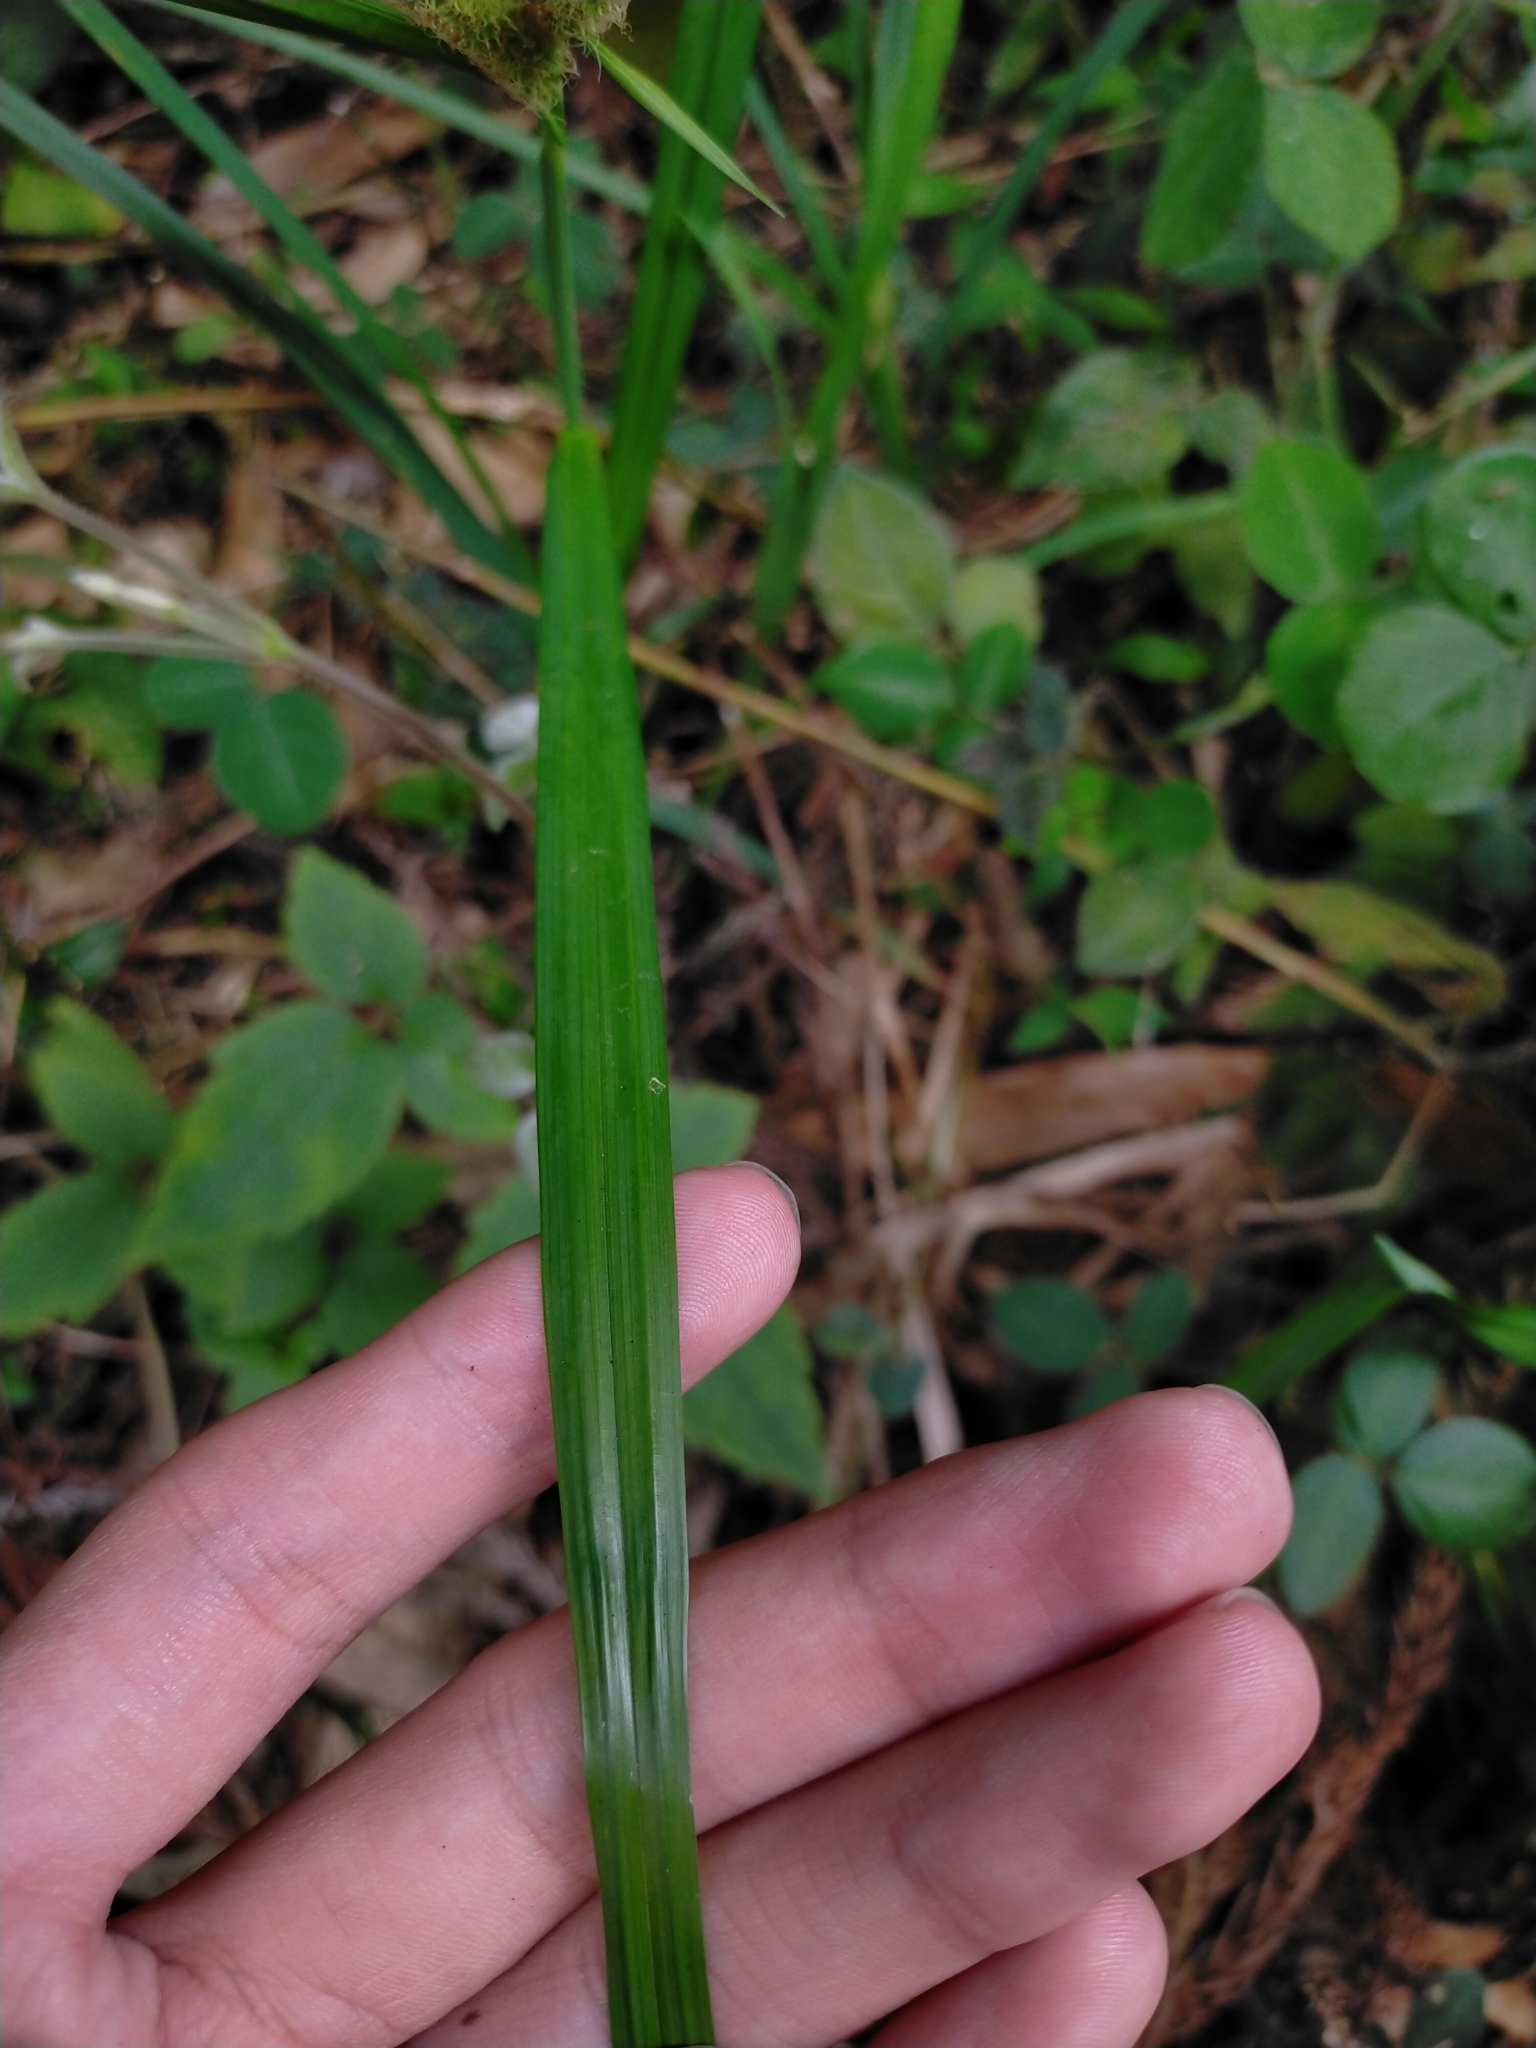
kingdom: Plantae
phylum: Tracheophyta
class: Liliopsida
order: Poales
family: Cyperaceae
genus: Carex
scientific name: Carex doniana
